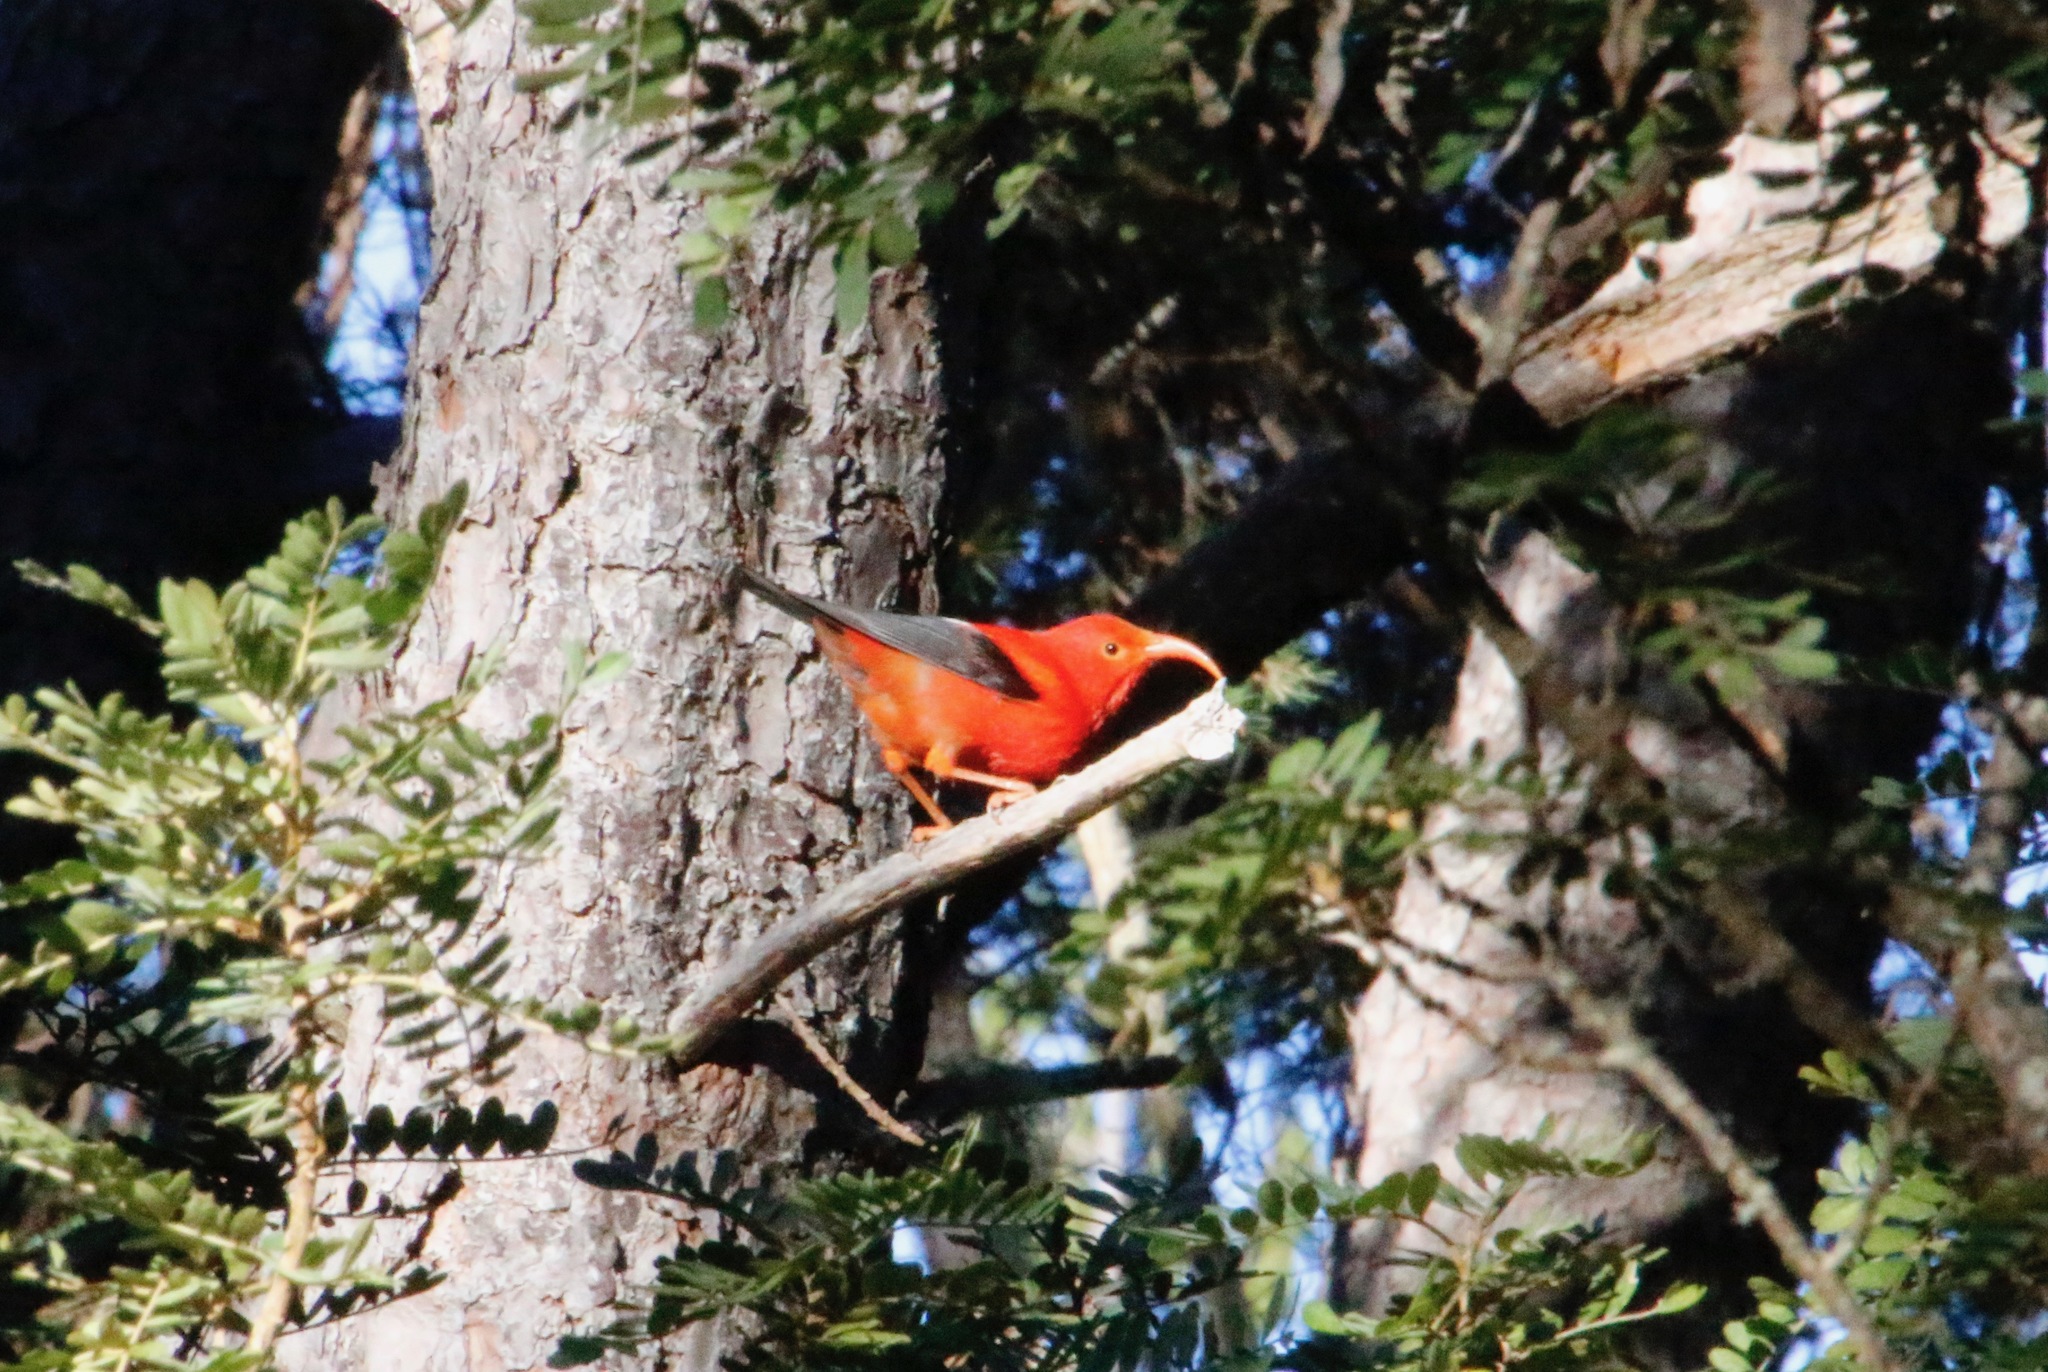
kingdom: Animalia
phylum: Chordata
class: Aves
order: Passeriformes
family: Fringillidae
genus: Vestiaria
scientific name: Vestiaria coccinea
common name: Iiwi
